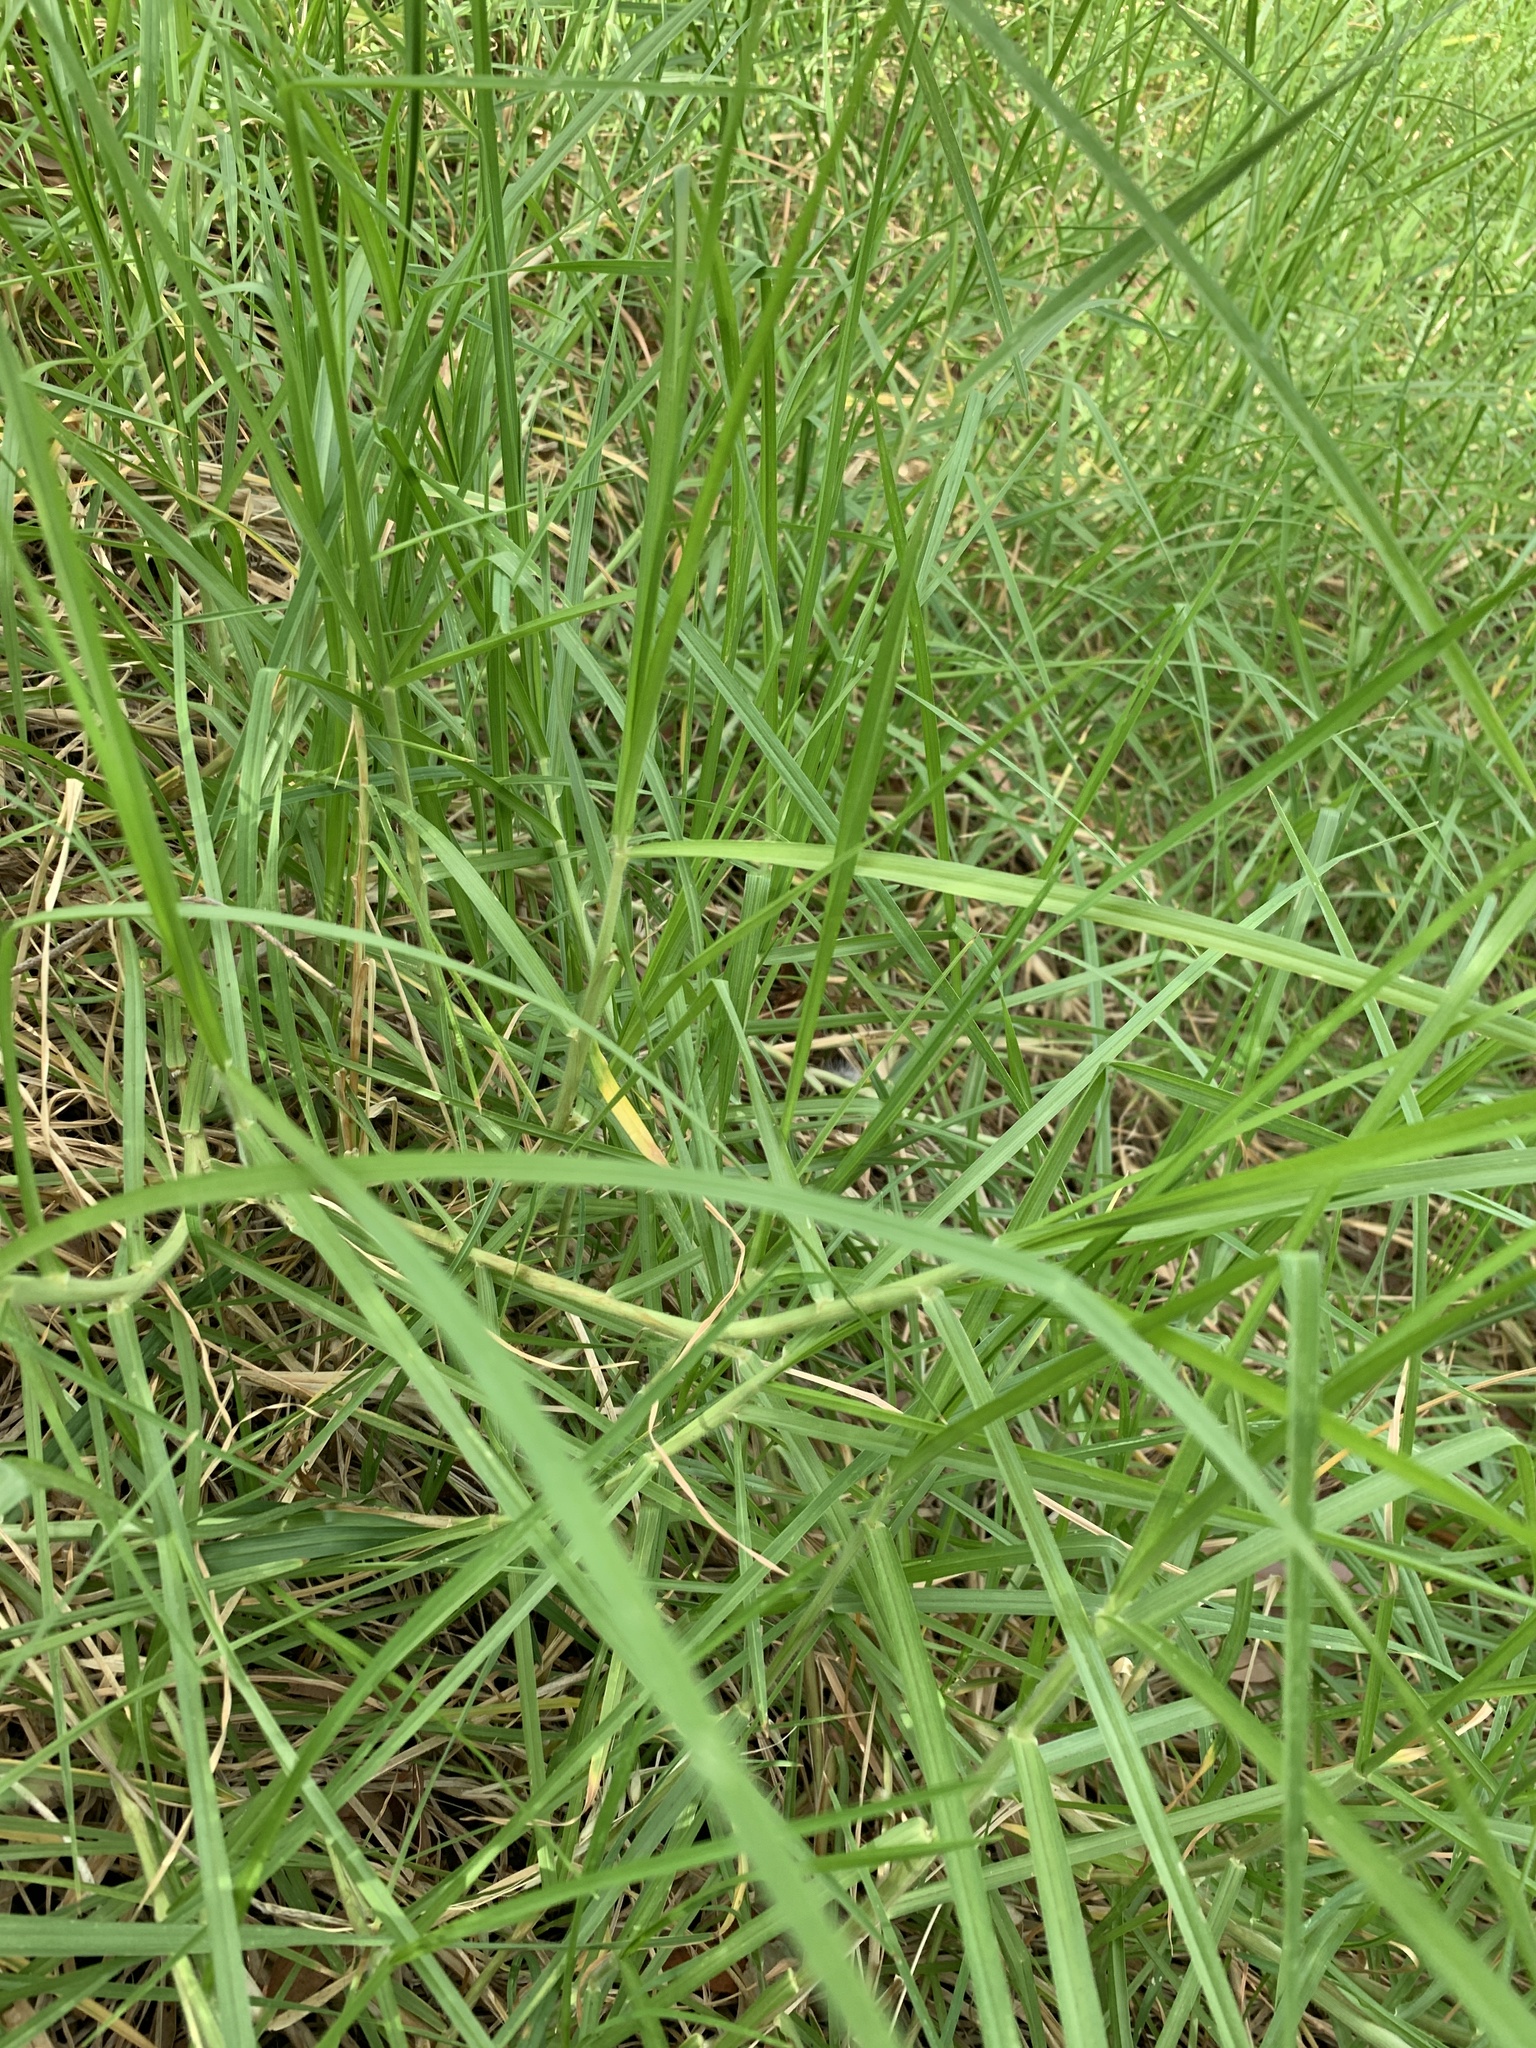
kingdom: Plantae
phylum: Tracheophyta
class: Liliopsida
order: Poales
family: Poaceae
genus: Cenchrus
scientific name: Cenchrus clandestinus
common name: Kikuyugrass
